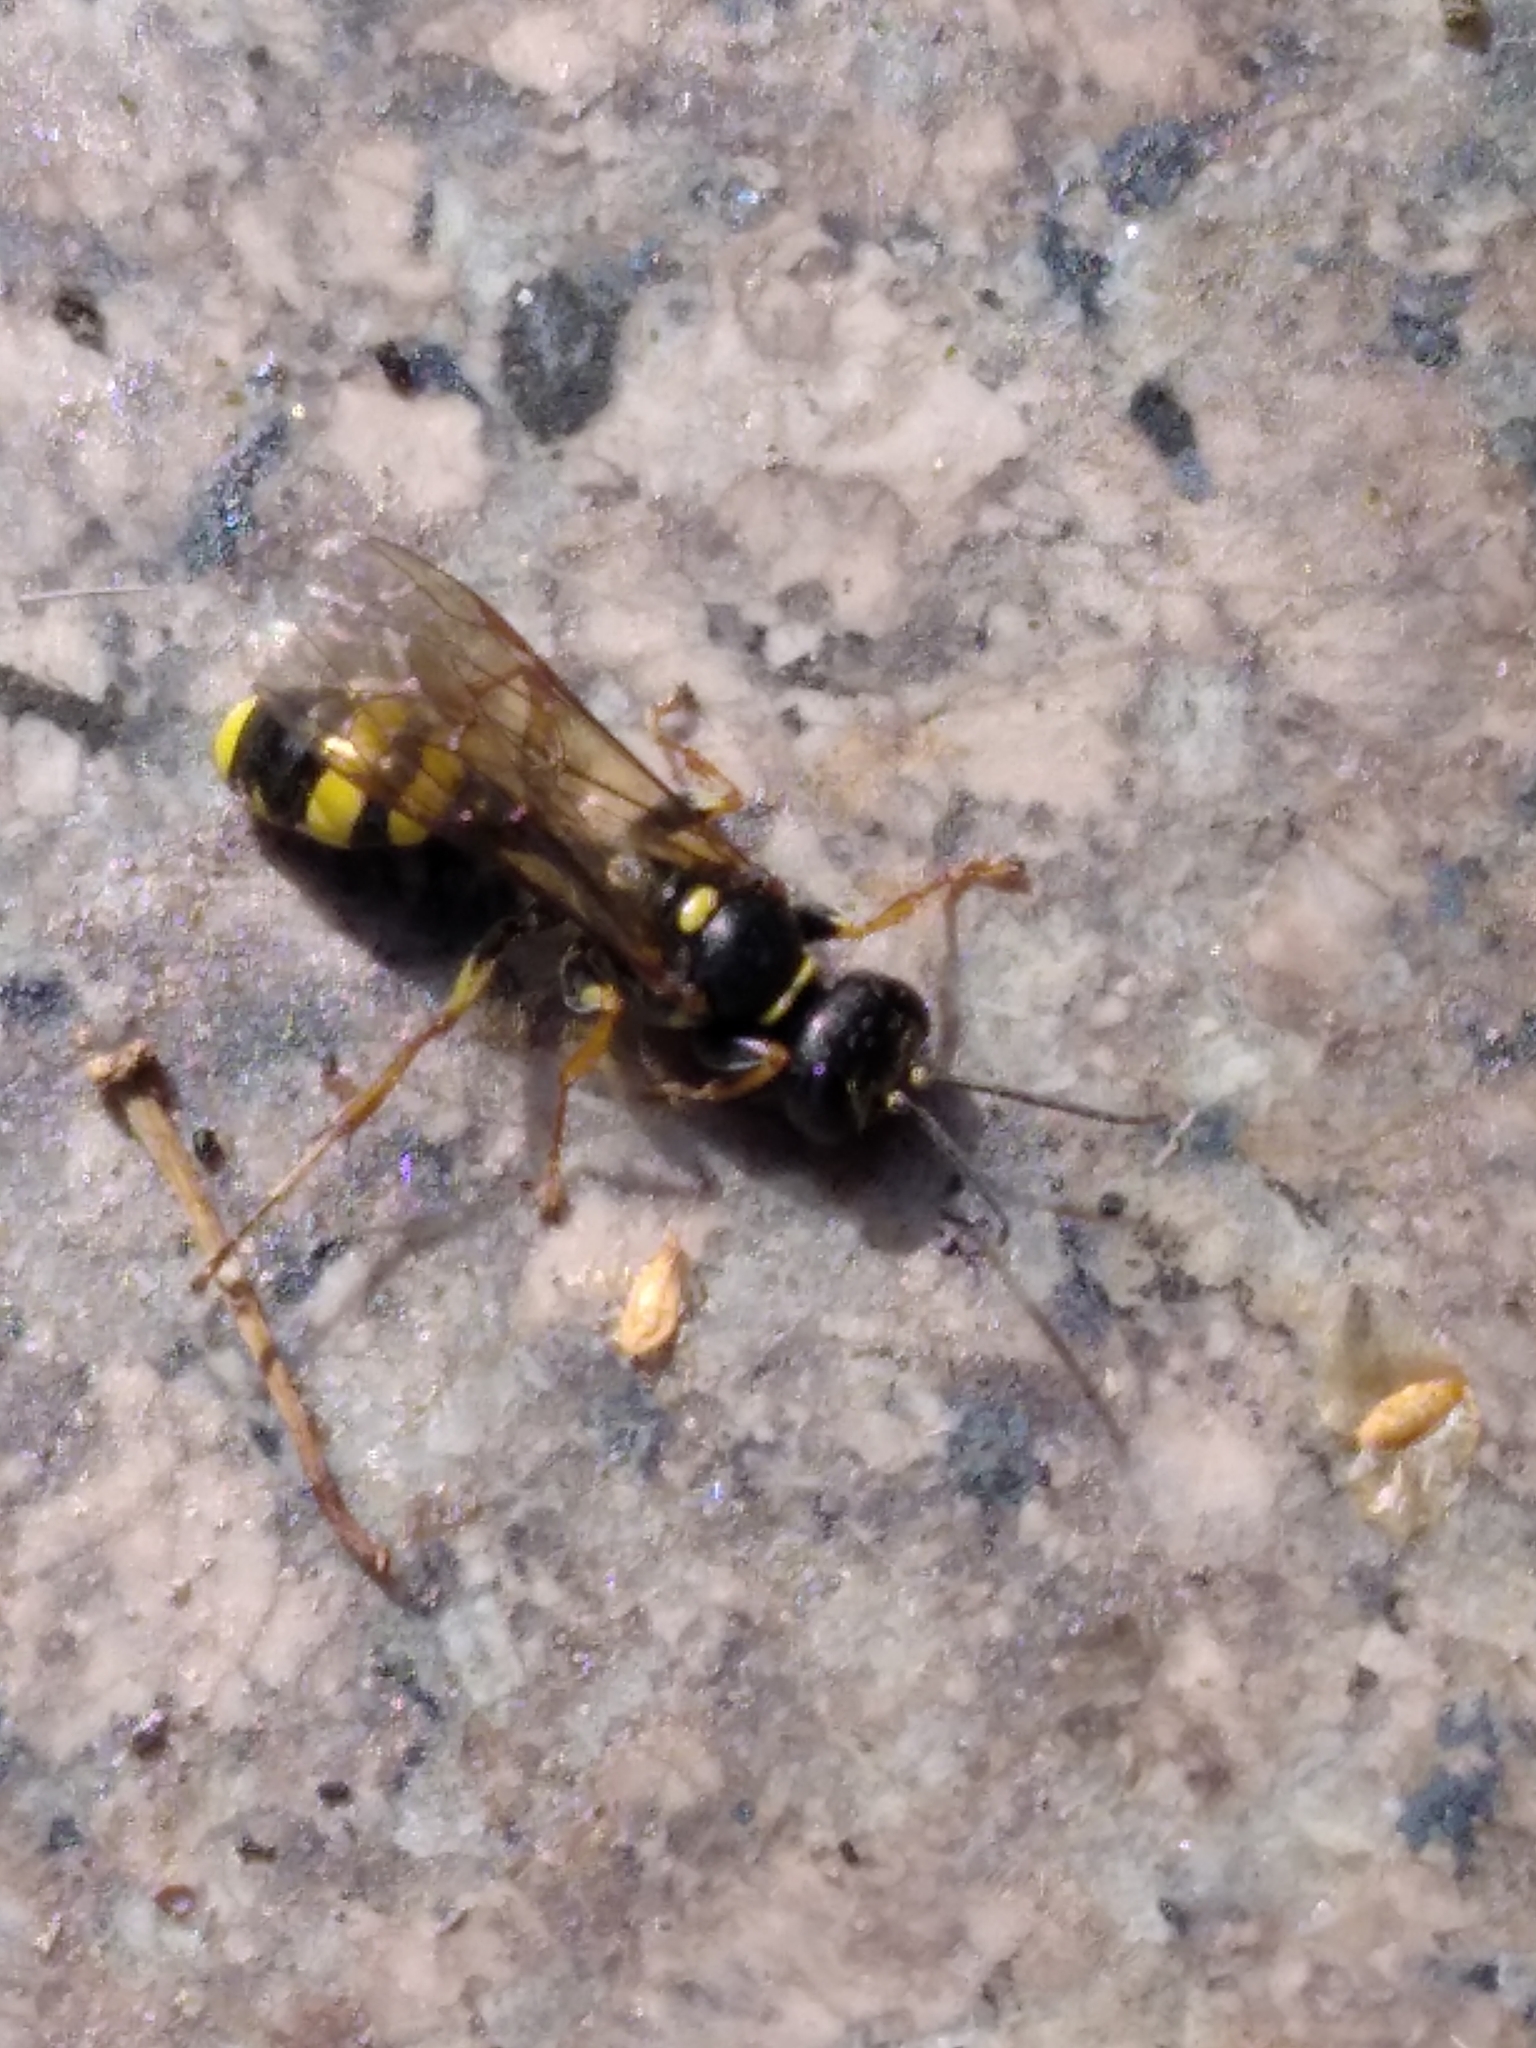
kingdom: Animalia
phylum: Arthropoda
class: Insecta
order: Hymenoptera
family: Crabronidae
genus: Mellinus
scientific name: Mellinus arvensis
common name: Field digger wasp
